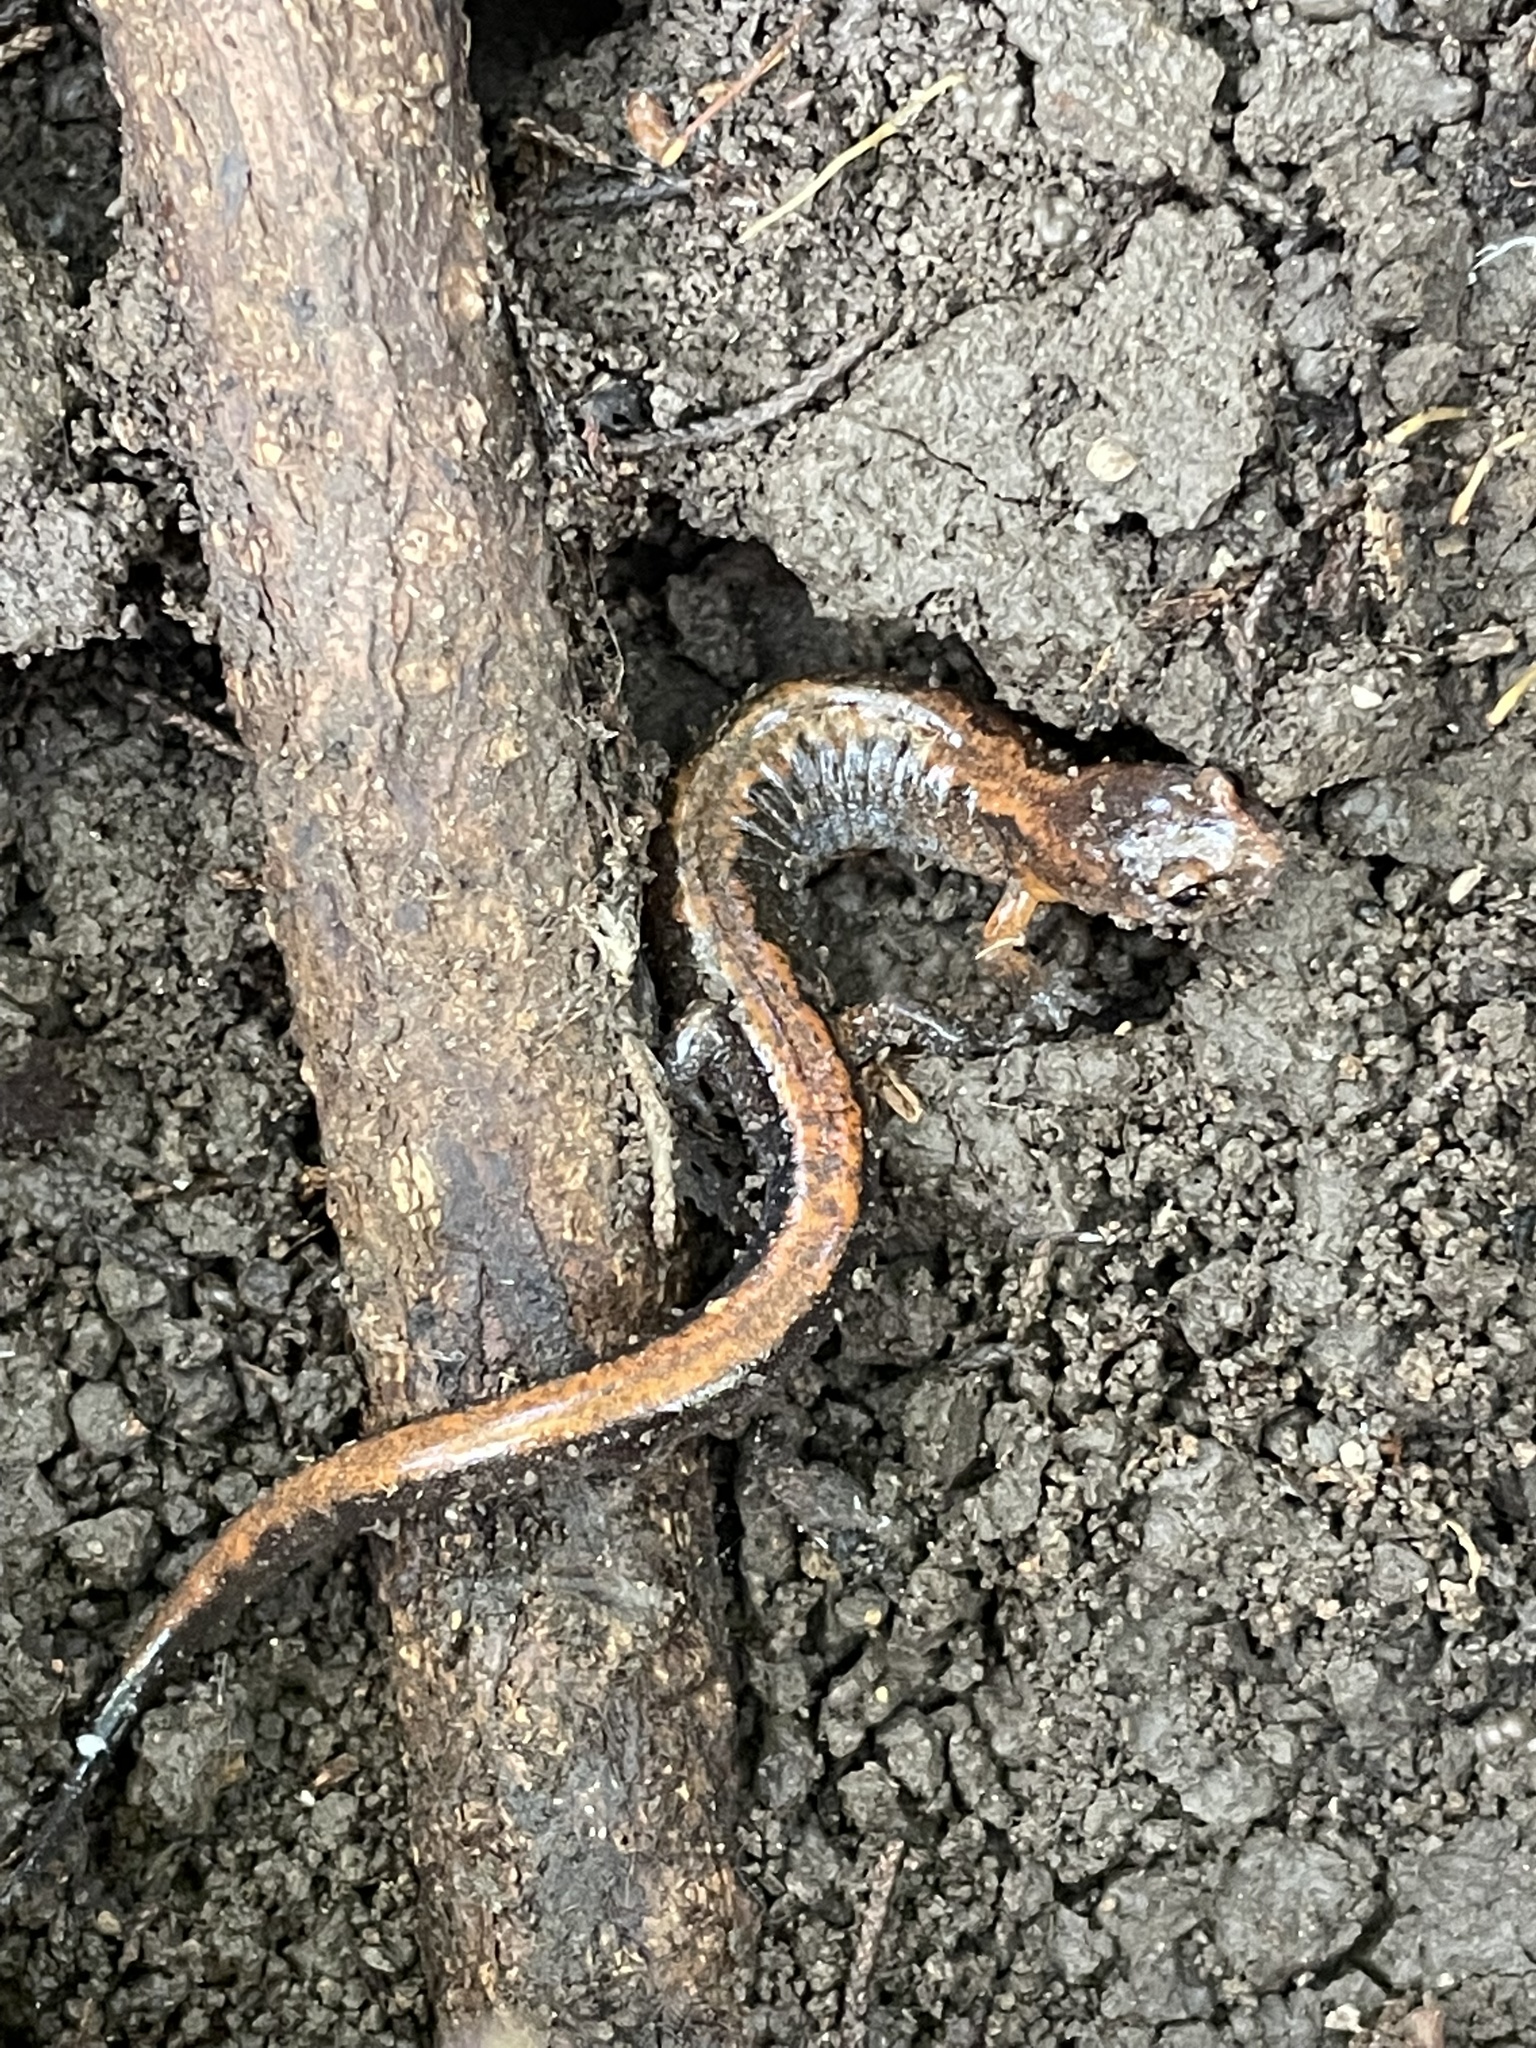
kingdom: Animalia
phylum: Chordata
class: Amphibia
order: Caudata
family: Plethodontidae
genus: Plethodon
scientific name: Plethodon dorsalis
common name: Northern zigzag salamander
